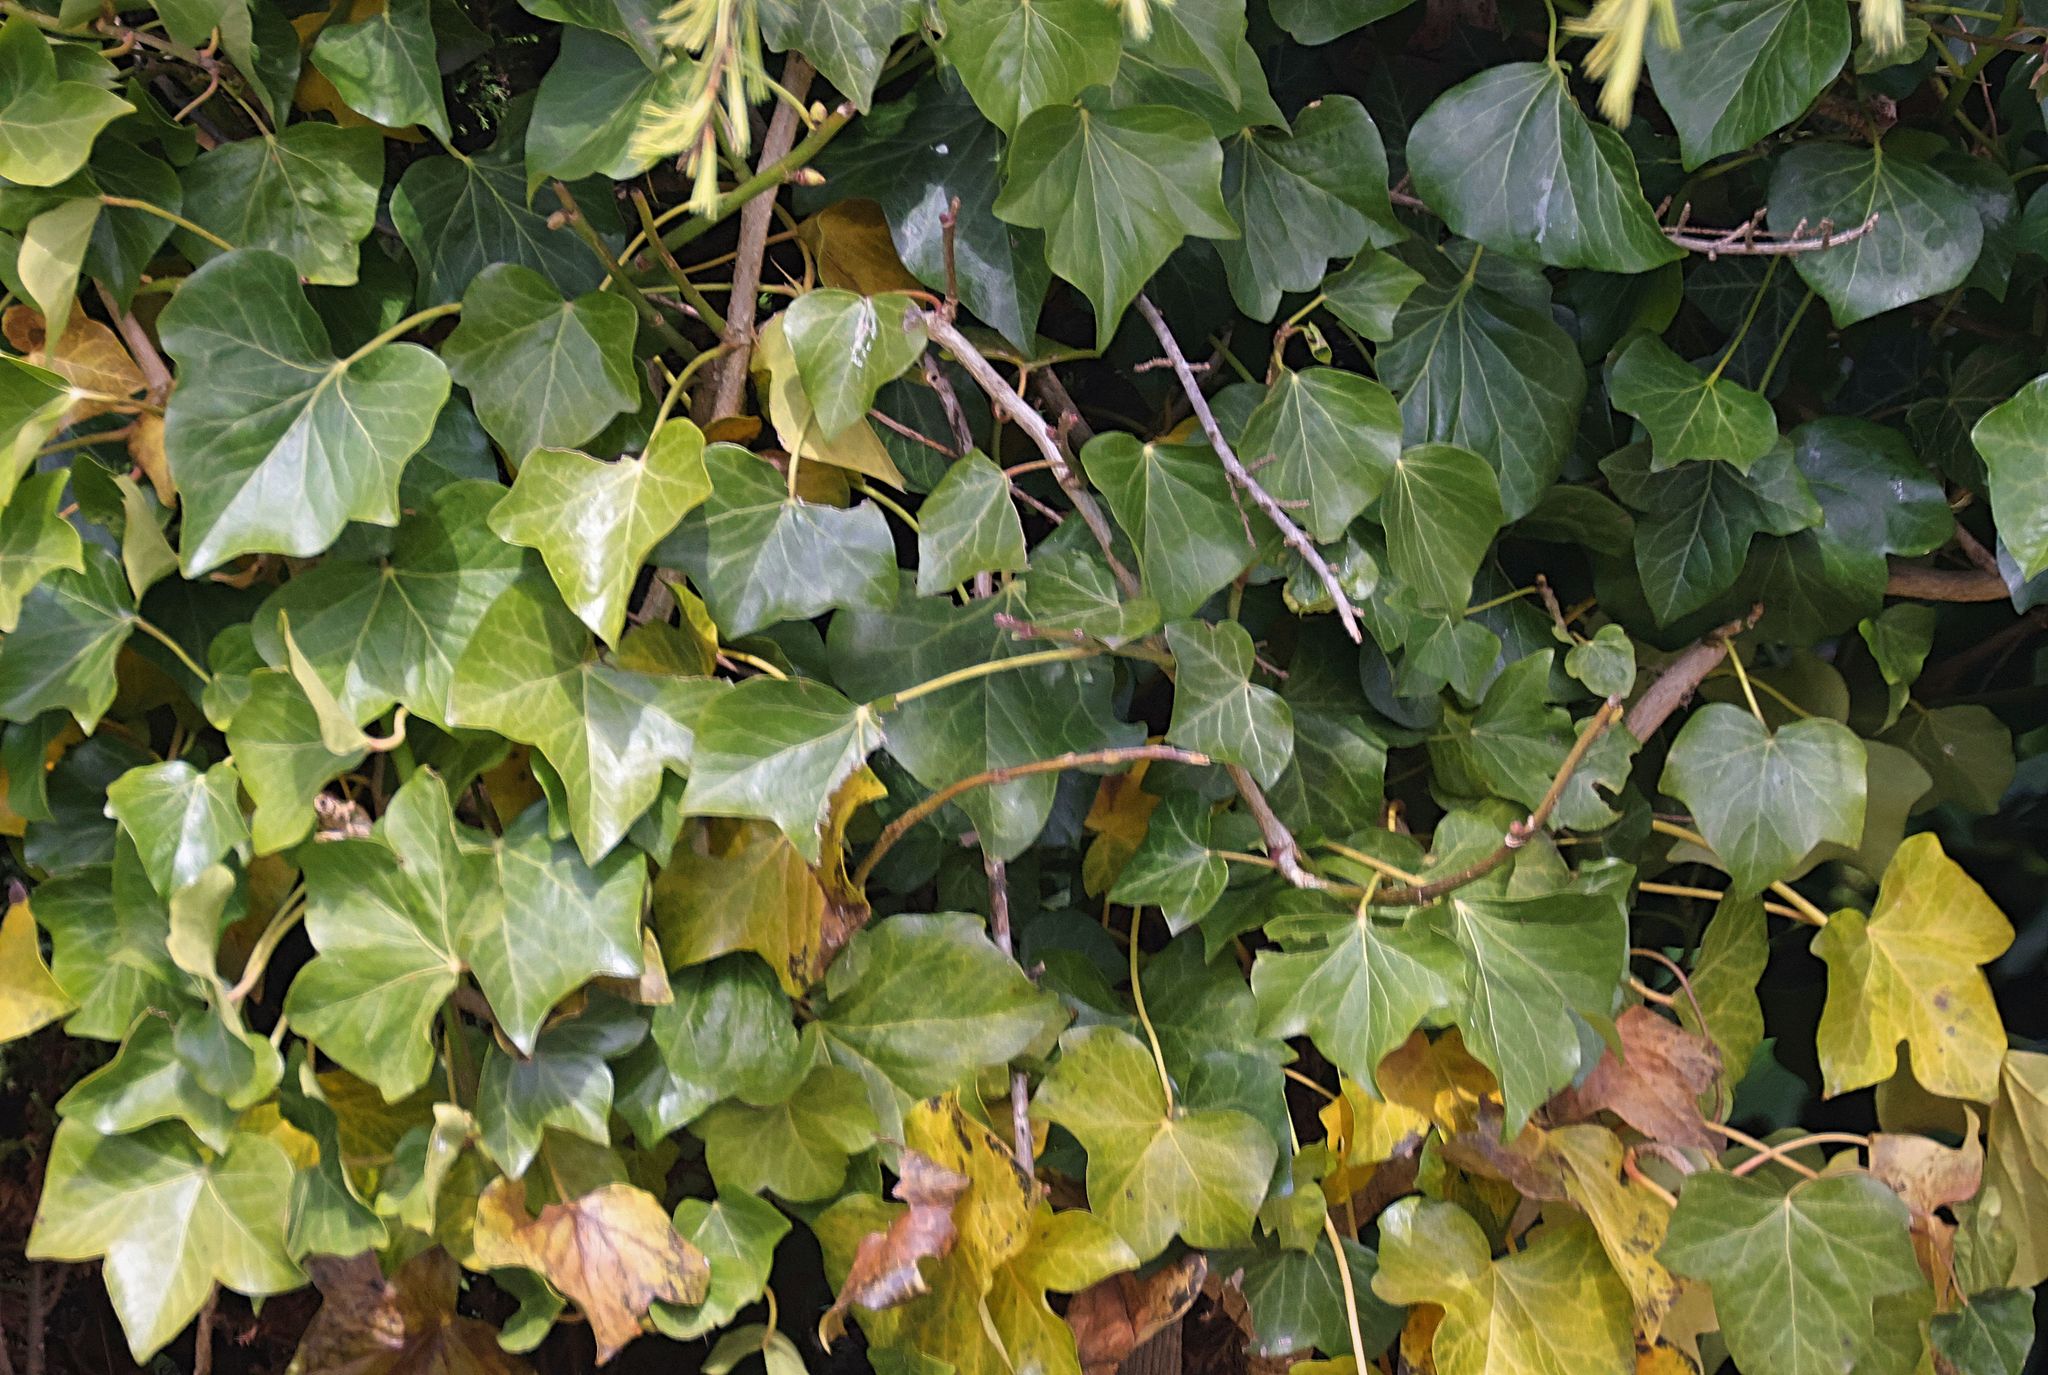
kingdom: Plantae
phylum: Tracheophyta
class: Magnoliopsida
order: Apiales
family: Araliaceae
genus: Hedera
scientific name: Hedera helix
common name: Ivy
